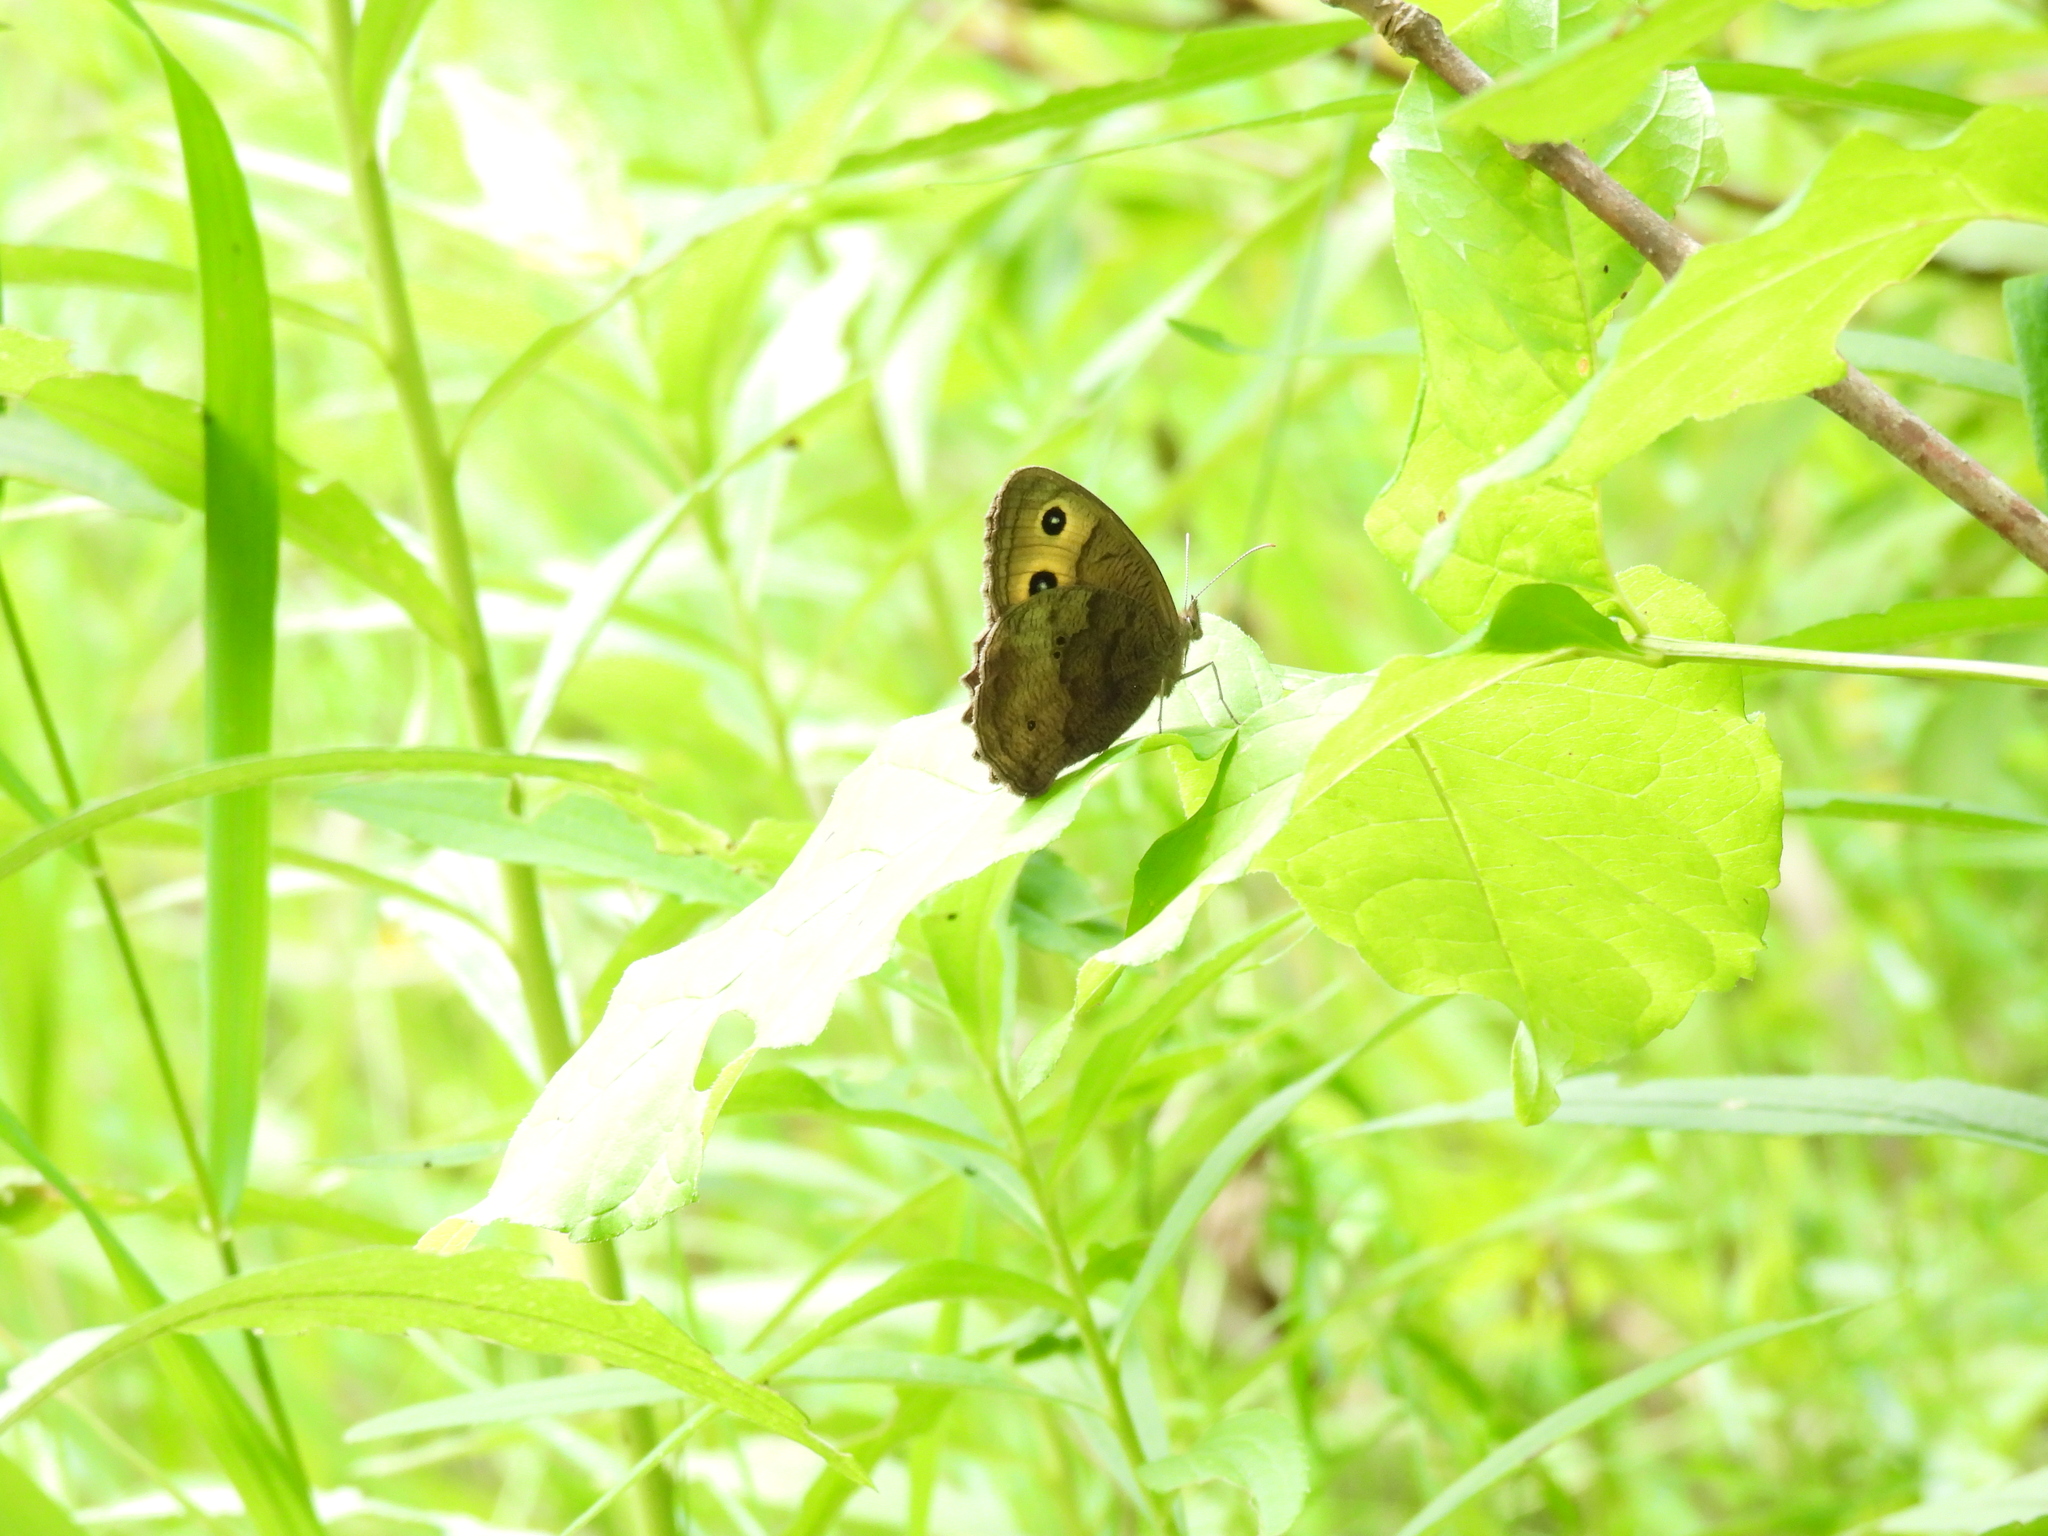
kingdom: Animalia
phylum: Arthropoda
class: Insecta
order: Lepidoptera
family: Nymphalidae
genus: Cercyonis
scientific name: Cercyonis pegala
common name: Common wood-nymph
